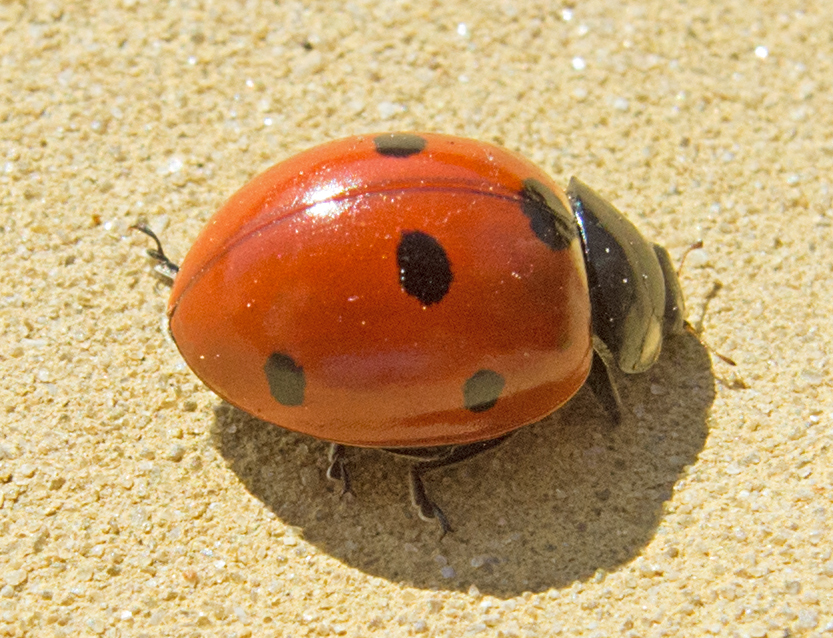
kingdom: Animalia
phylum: Arthropoda
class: Insecta
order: Coleoptera
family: Coccinellidae
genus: Coccinella
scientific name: Coccinella septempunctata
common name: Sevenspotted lady beetle
